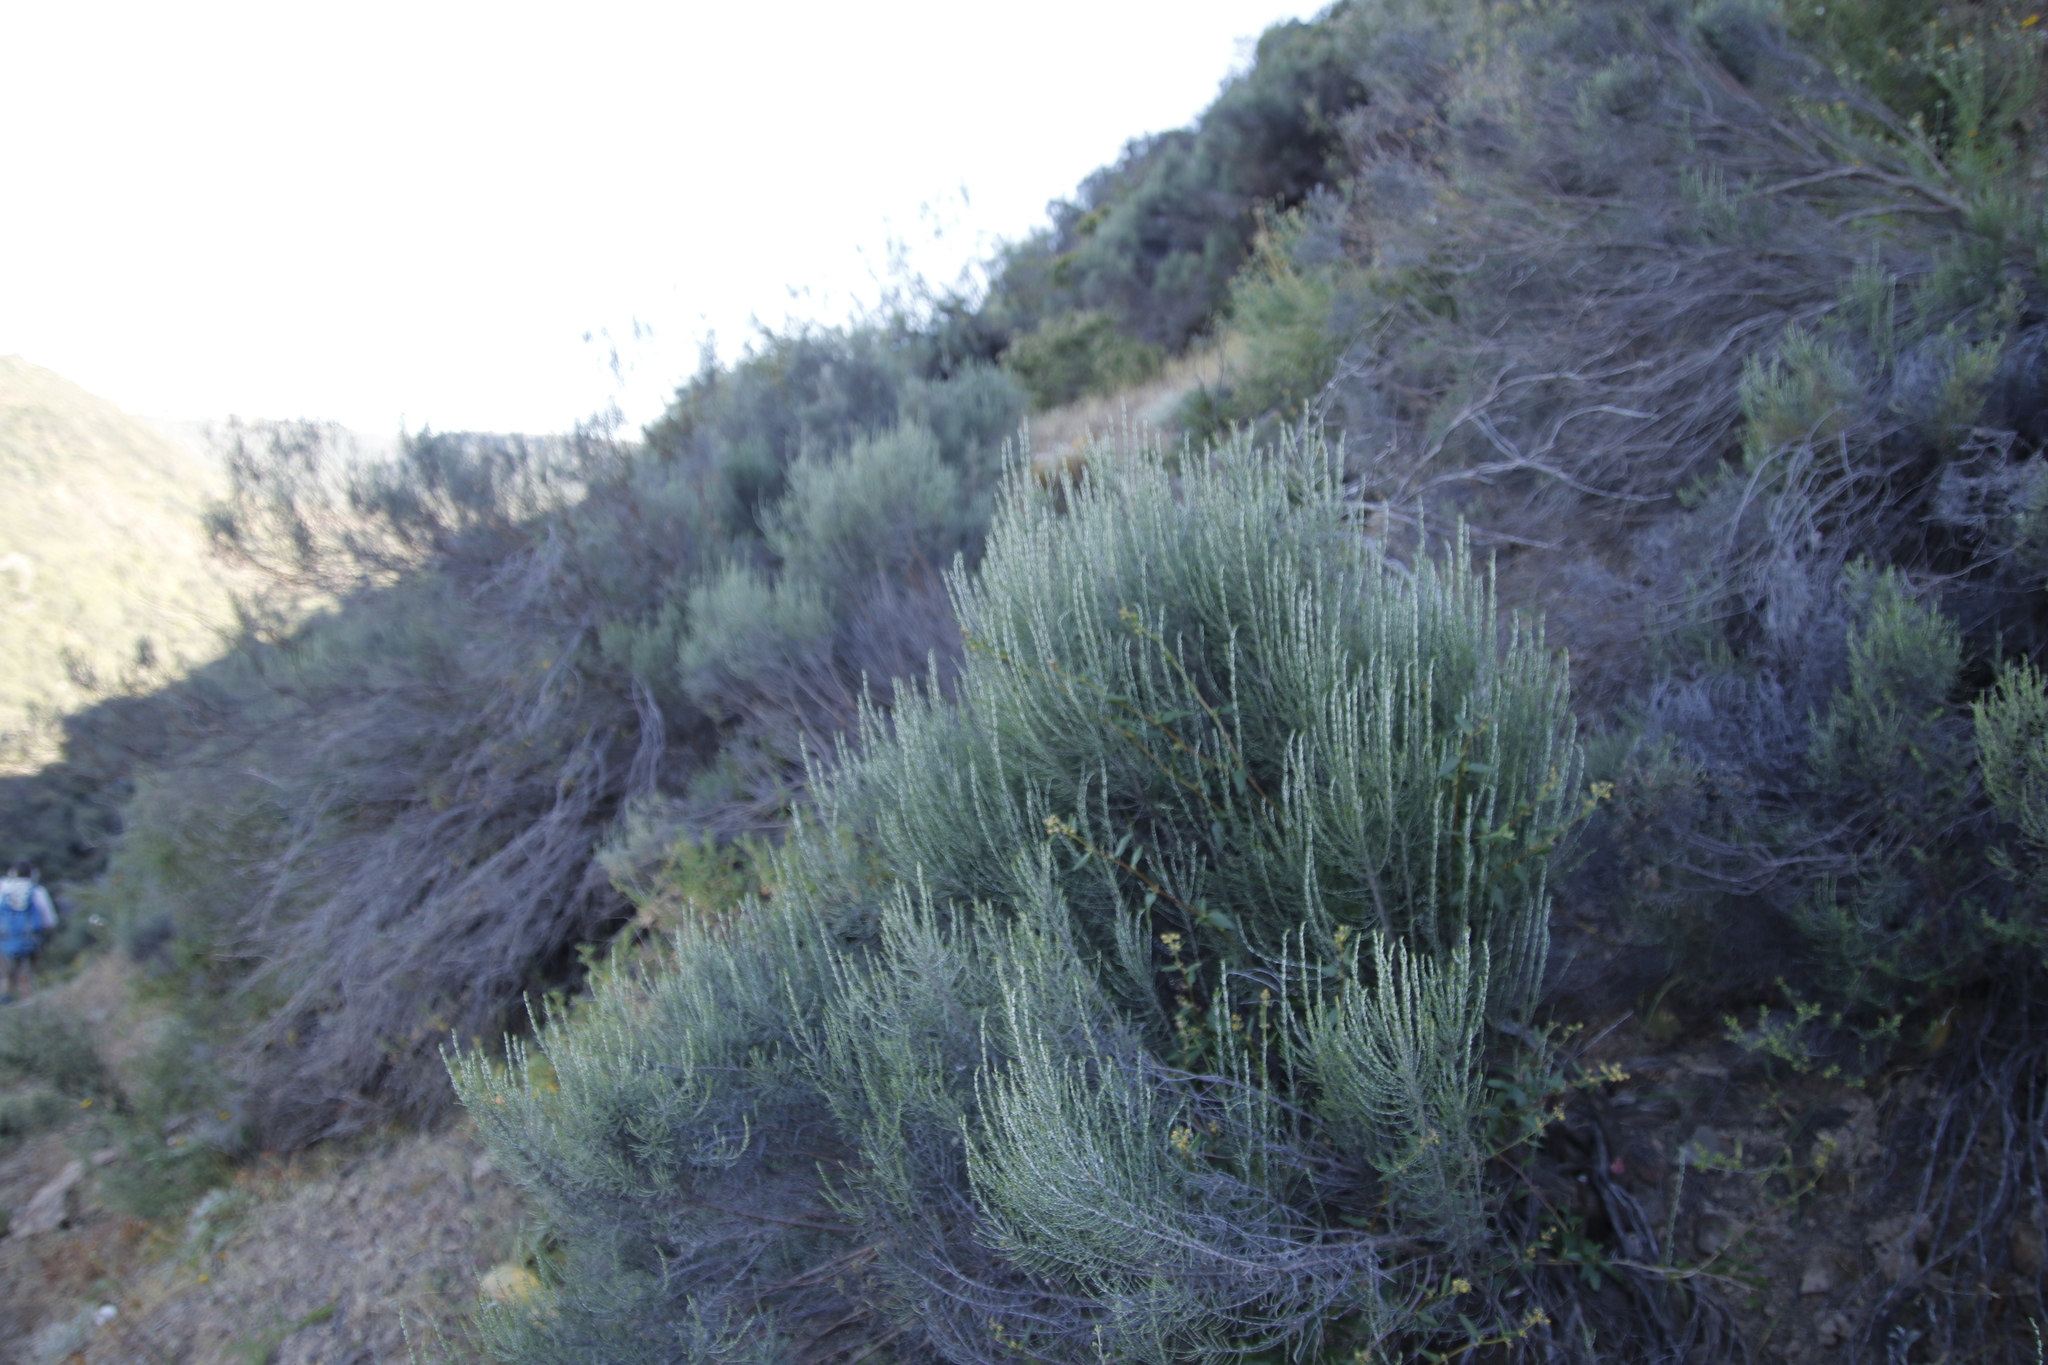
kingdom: Plantae
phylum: Tracheophyta
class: Magnoliopsida
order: Asterales
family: Asteraceae
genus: Dicerothamnus
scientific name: Dicerothamnus rhinocerotis
